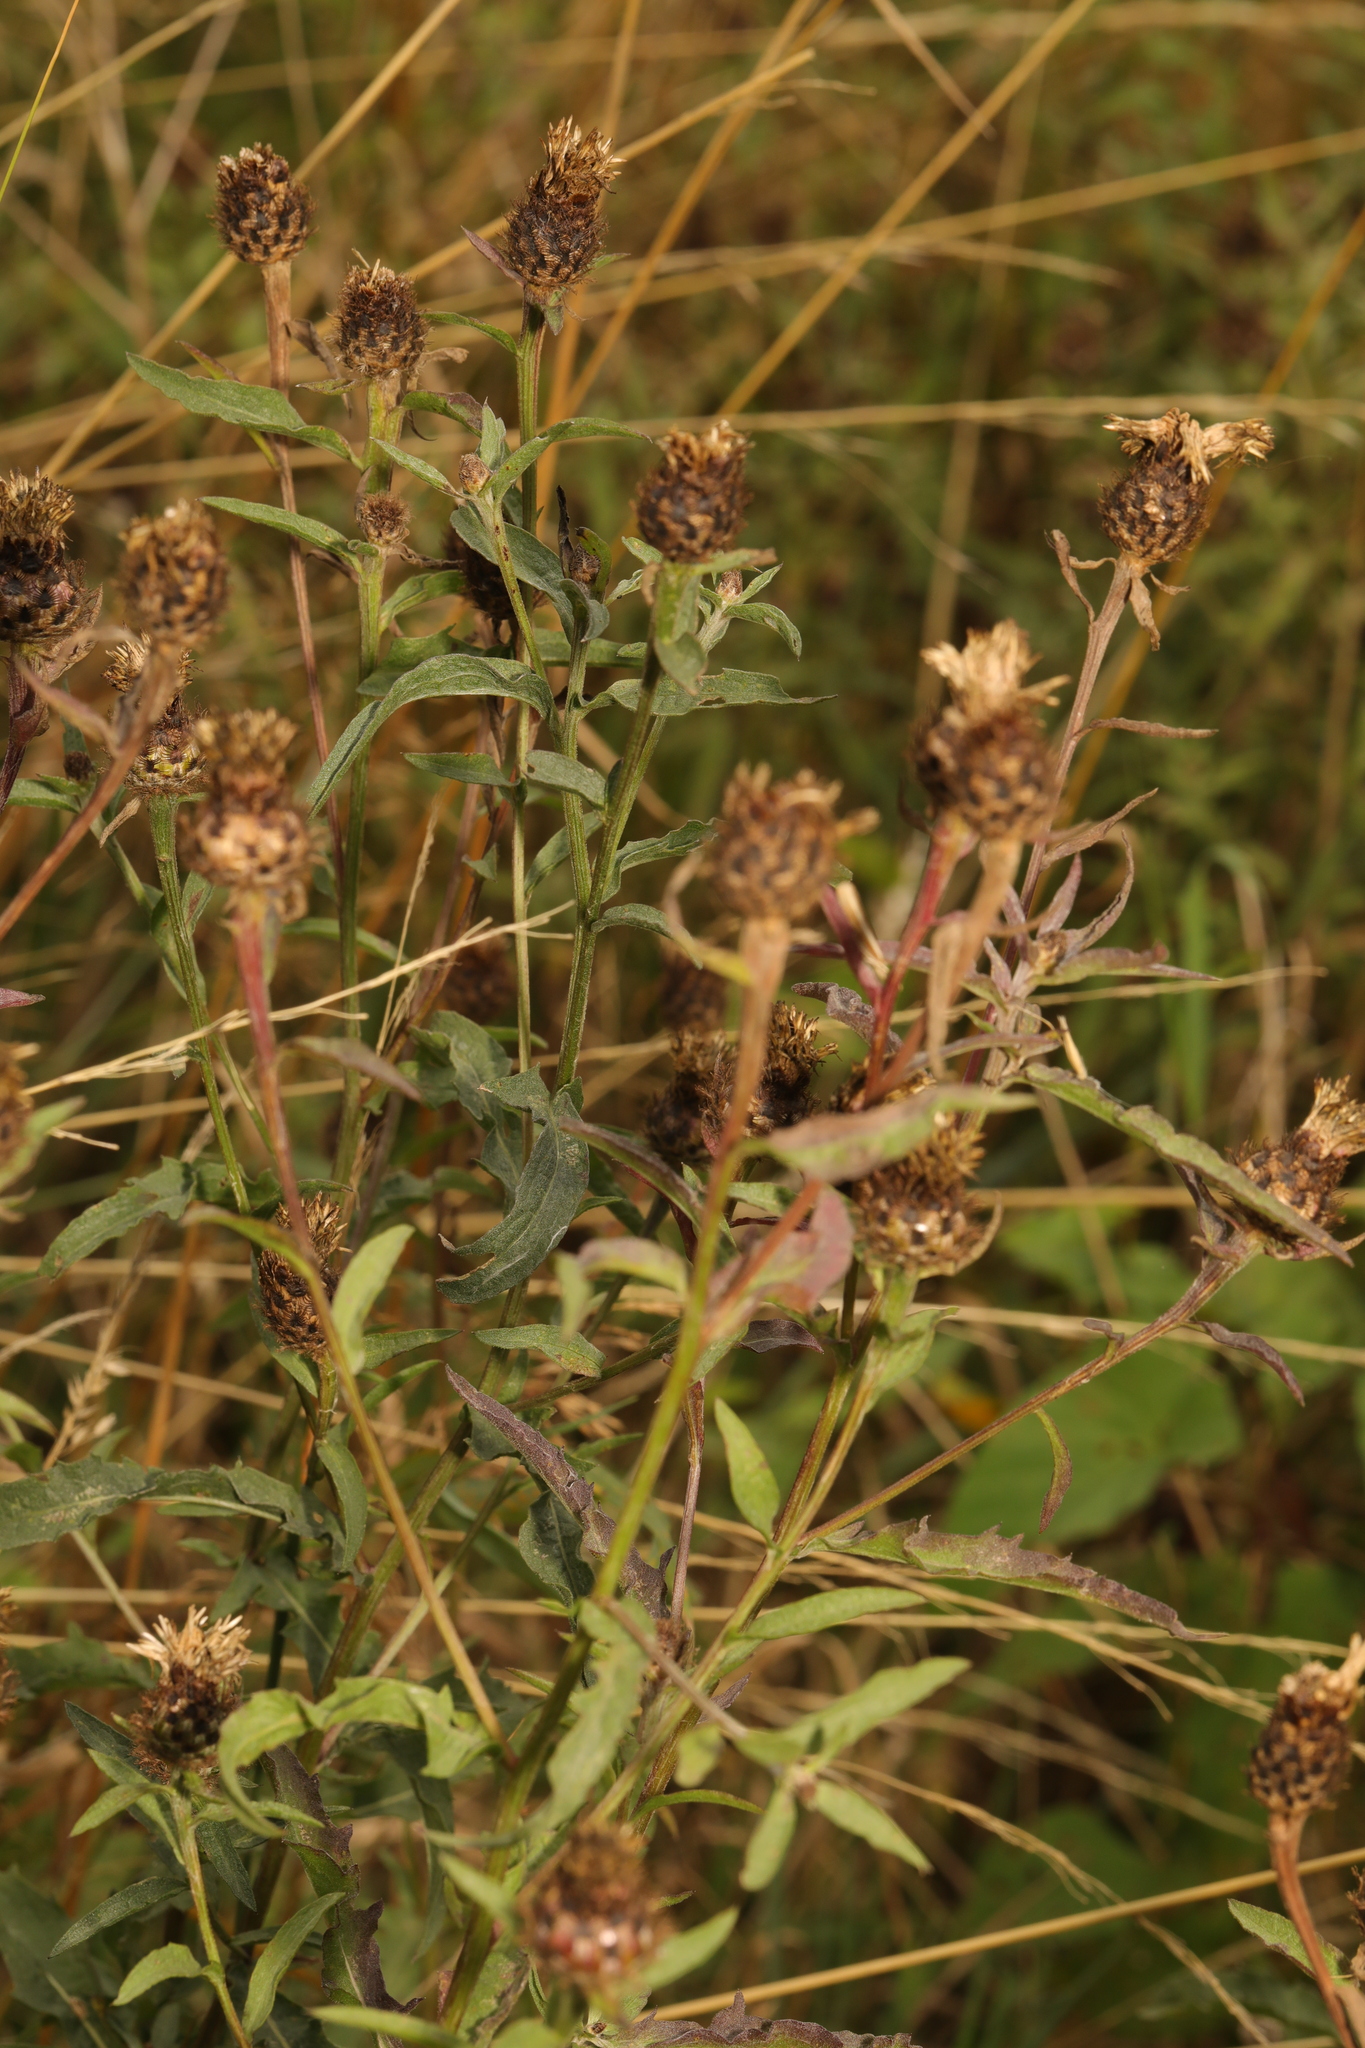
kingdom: Plantae
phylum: Tracheophyta
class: Magnoliopsida
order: Asterales
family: Asteraceae
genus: Centaurea
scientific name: Centaurea nigra
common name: Lesser knapweed
